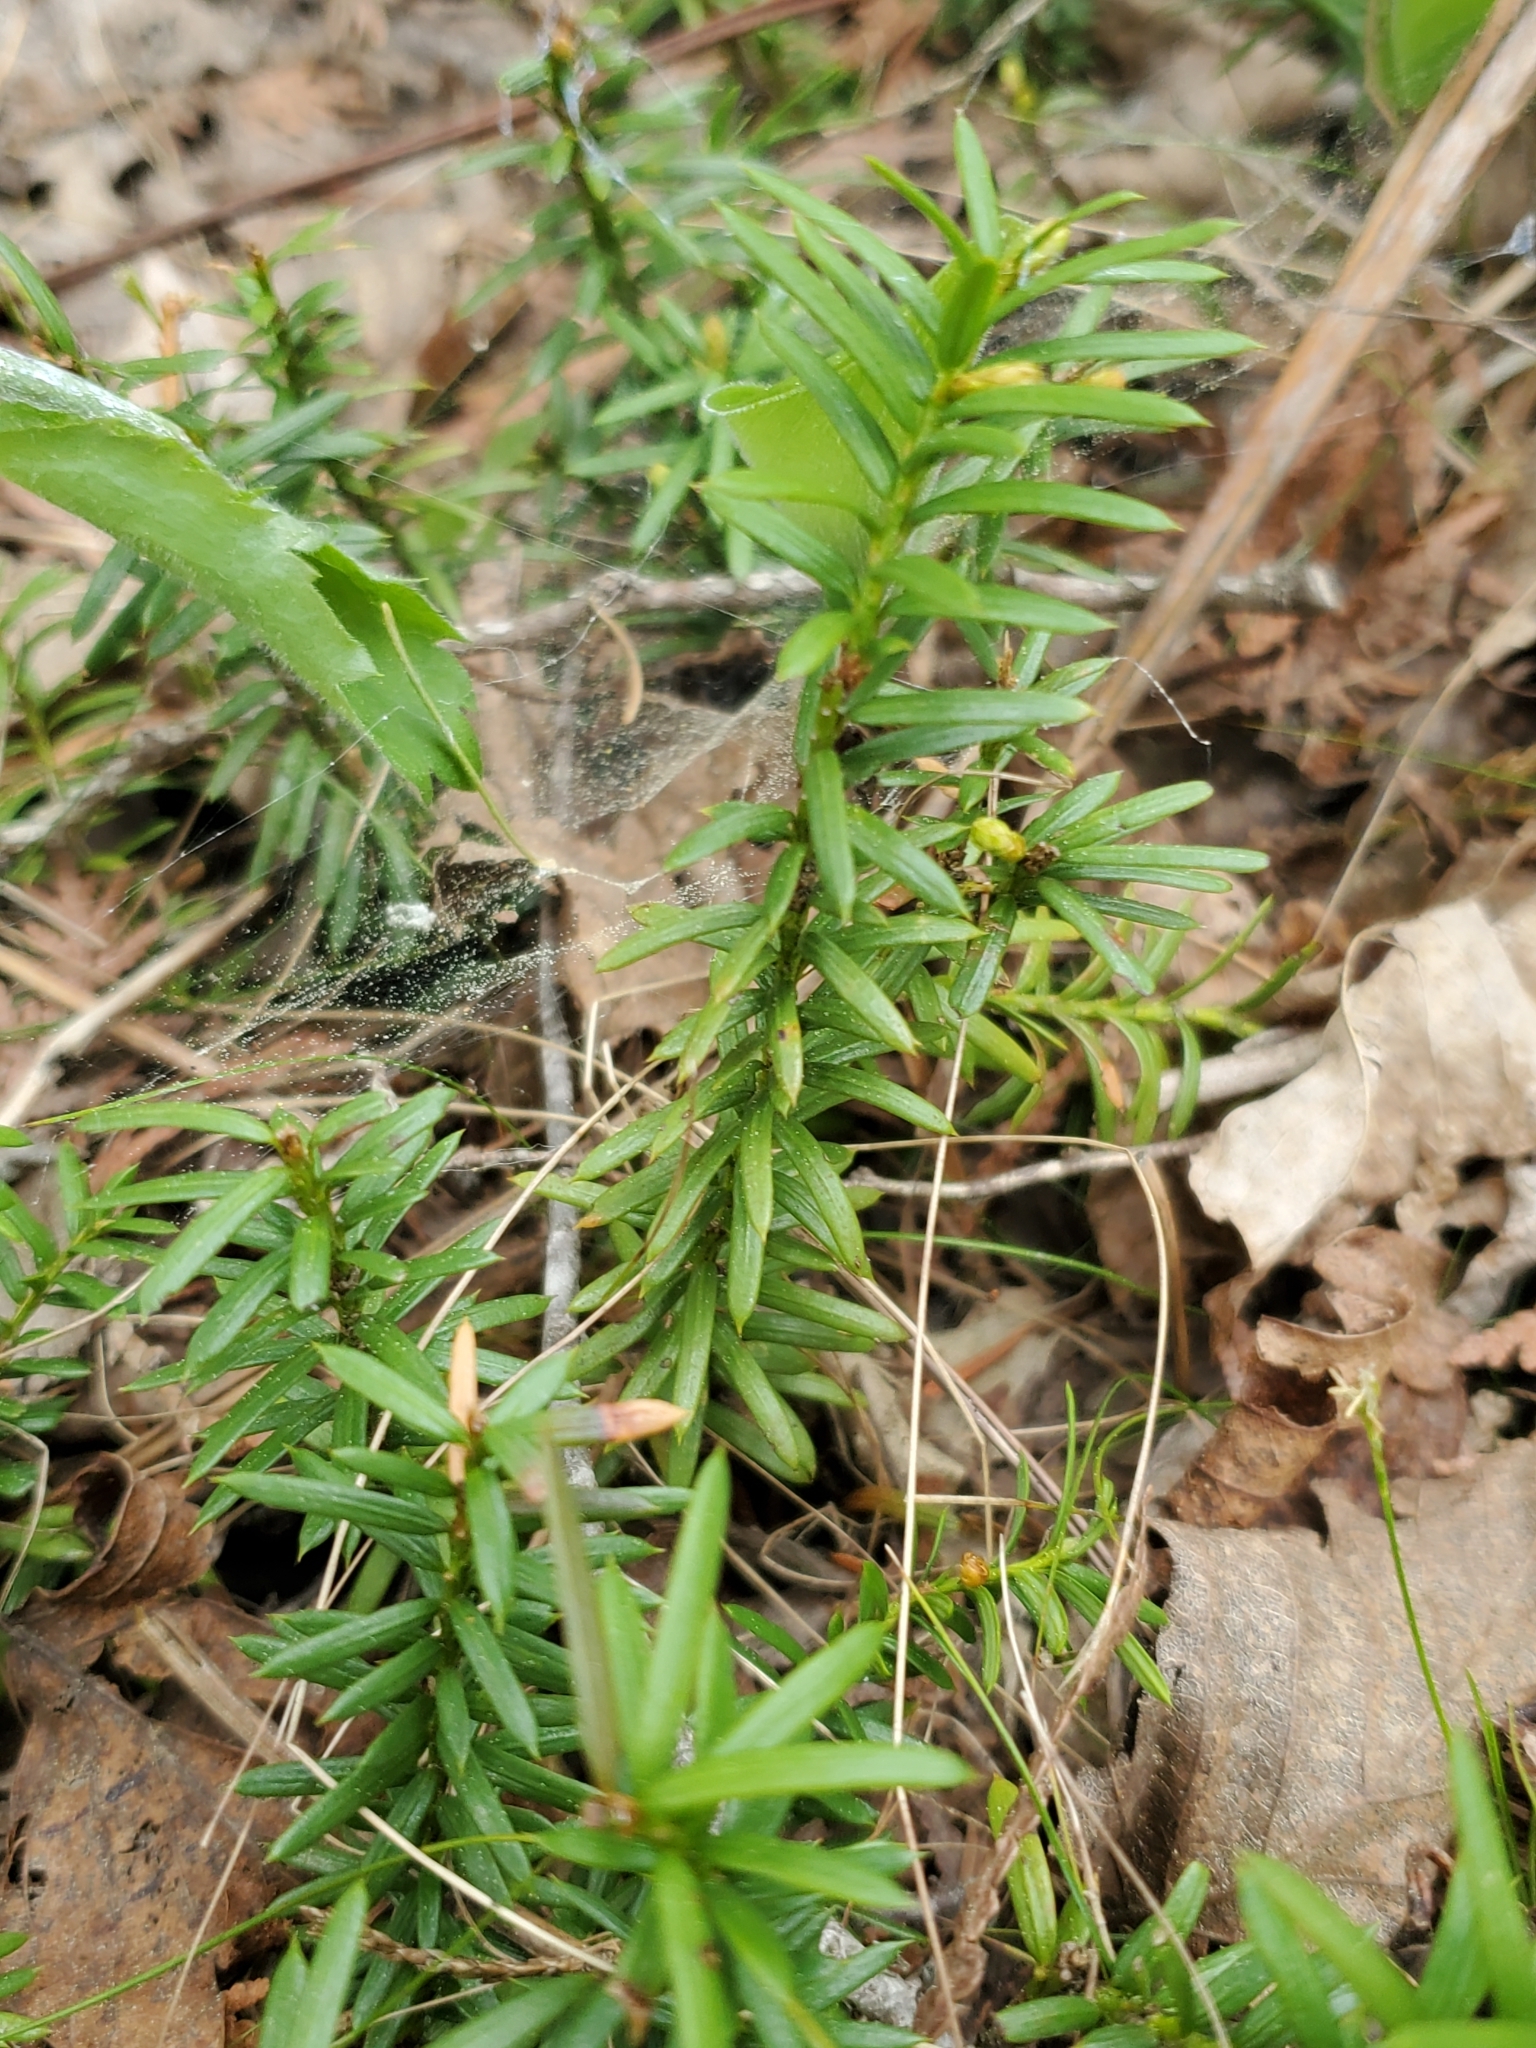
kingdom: Plantae
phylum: Tracheophyta
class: Pinopsida
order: Pinales
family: Taxaceae
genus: Taxus
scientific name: Taxus canadensis
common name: American yew
